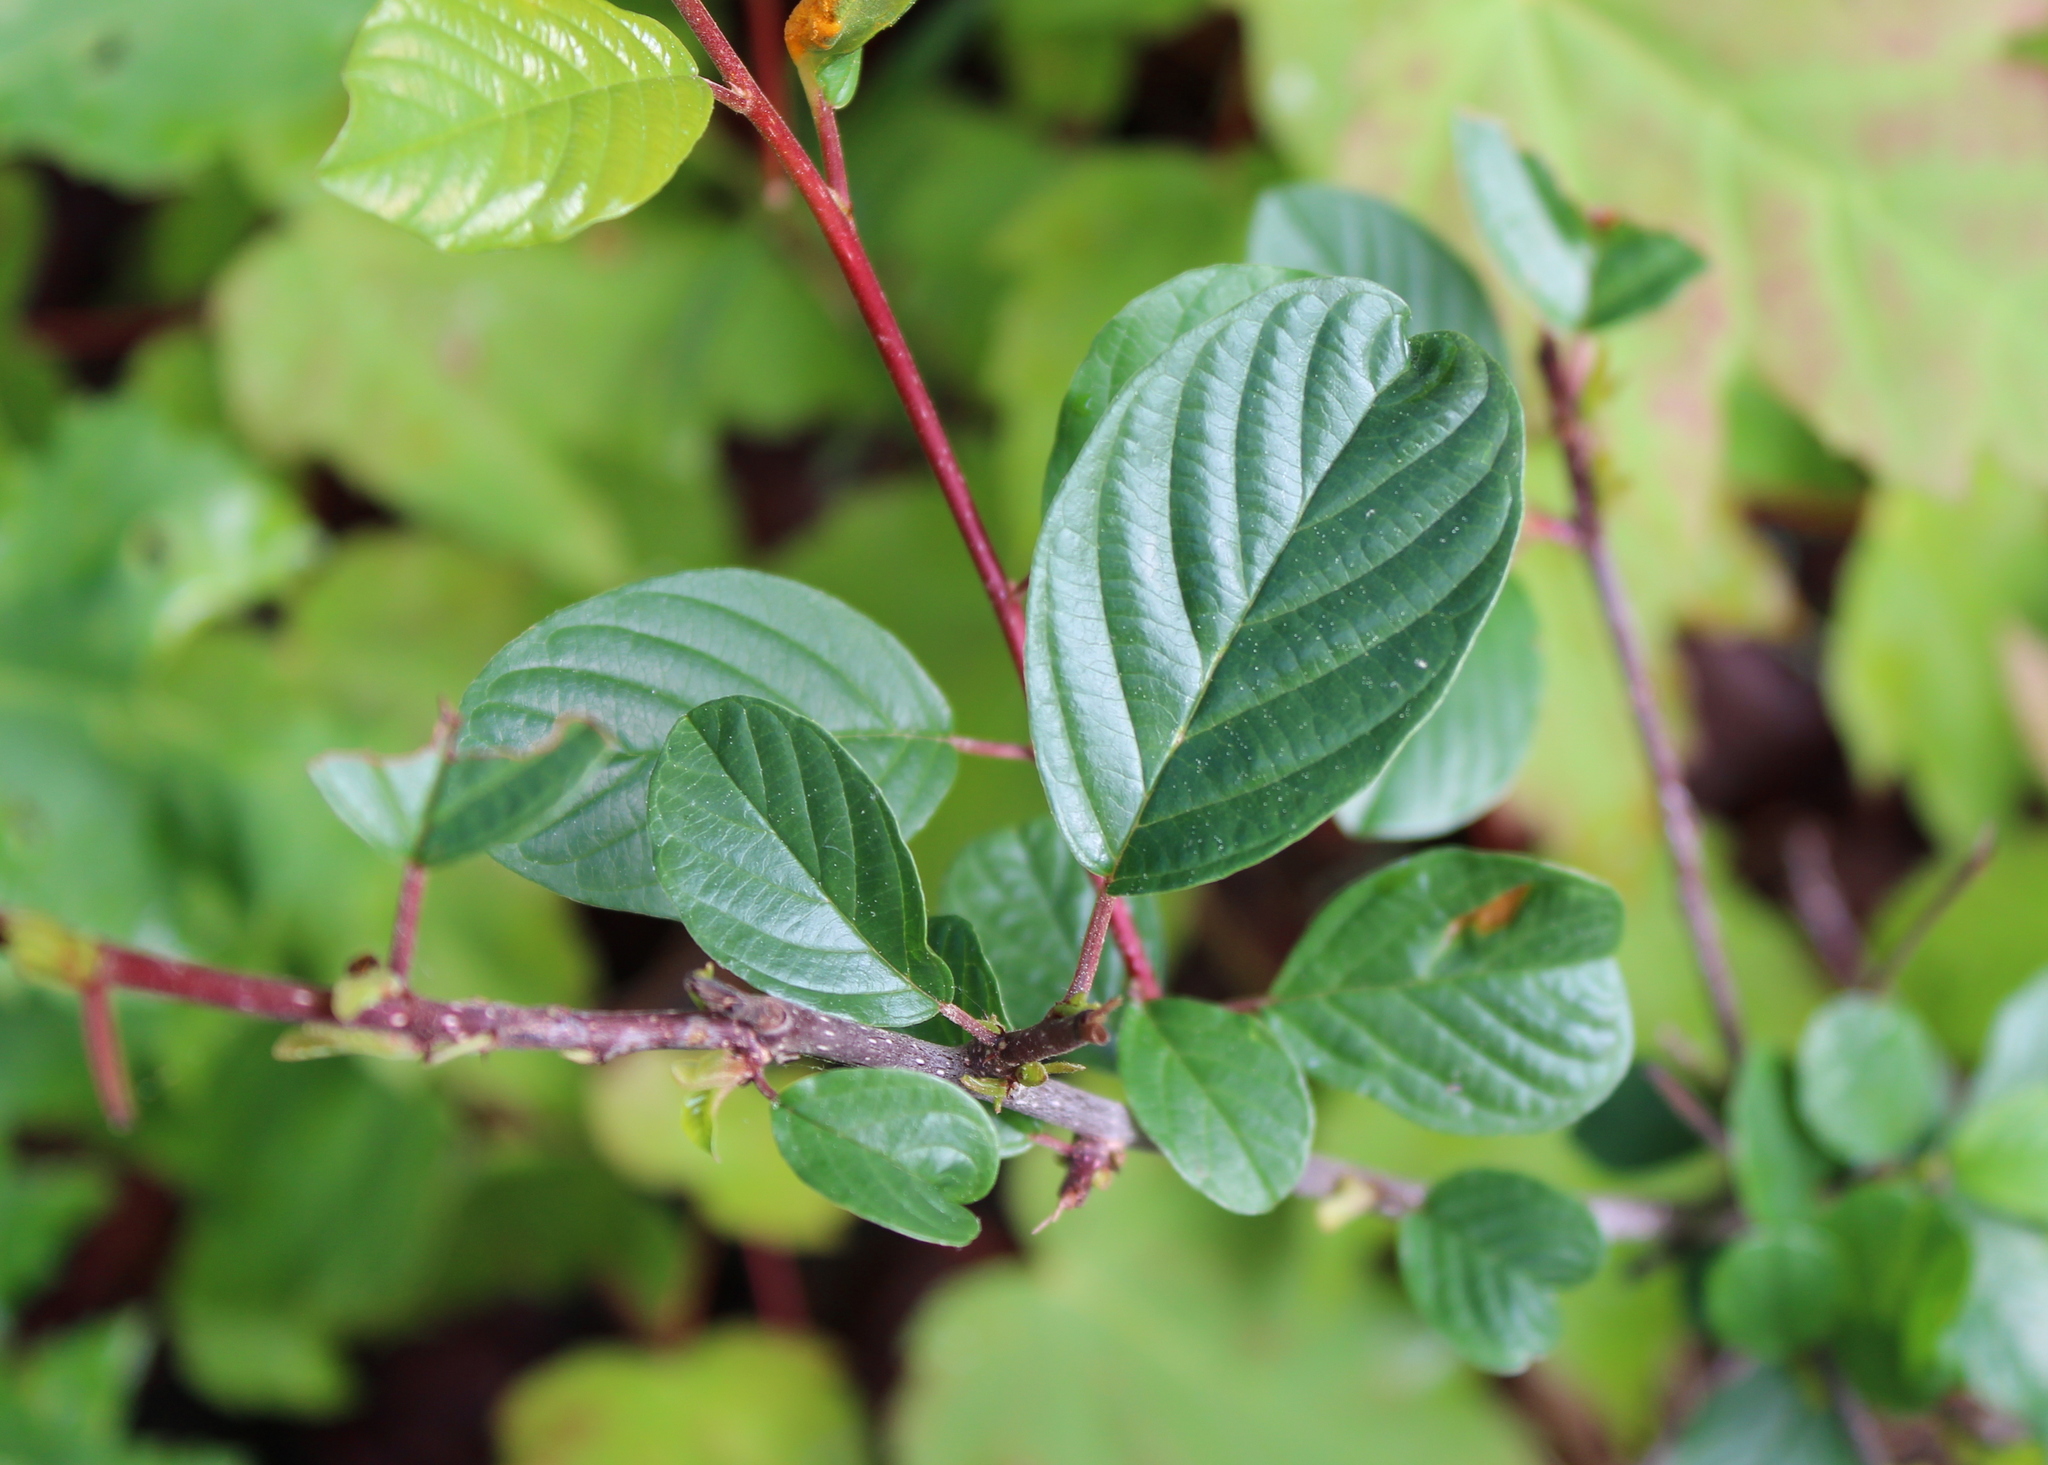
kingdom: Plantae
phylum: Tracheophyta
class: Magnoliopsida
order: Rosales
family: Rhamnaceae
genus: Frangula
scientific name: Frangula alnus
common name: Alder buckthorn
